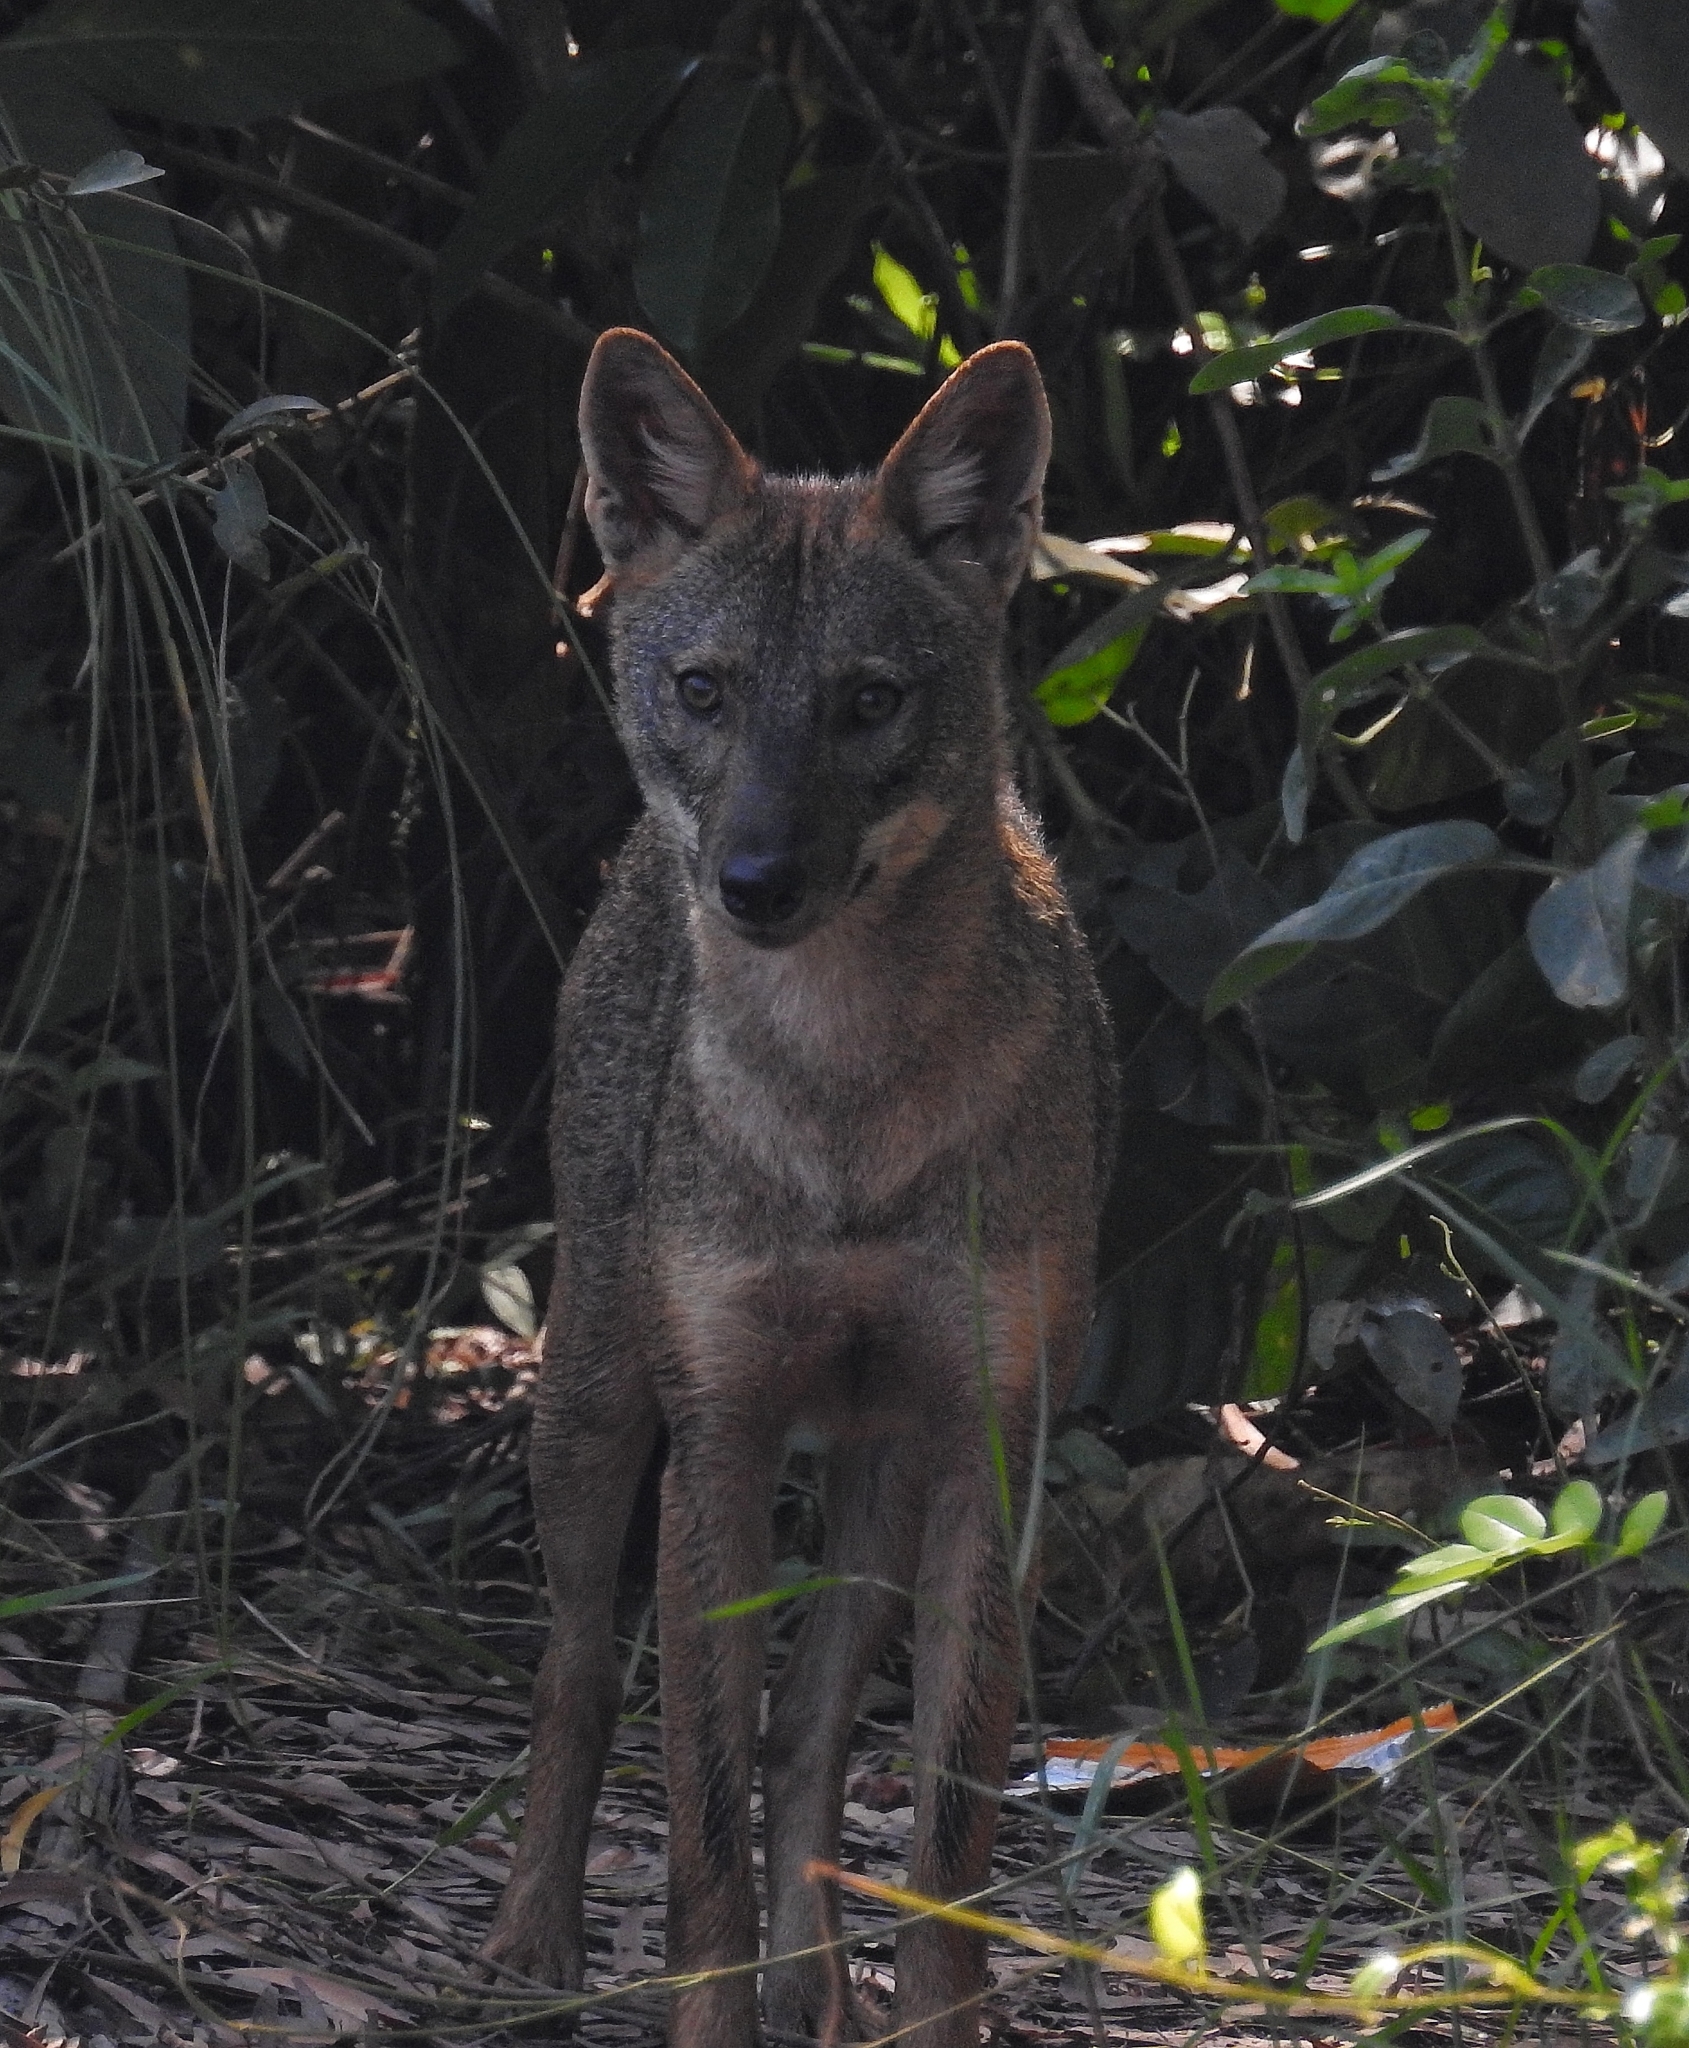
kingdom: Animalia
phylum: Chordata
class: Mammalia
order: Carnivora
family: Canidae
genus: Canis
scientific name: Canis aureus
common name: Golden jackal
